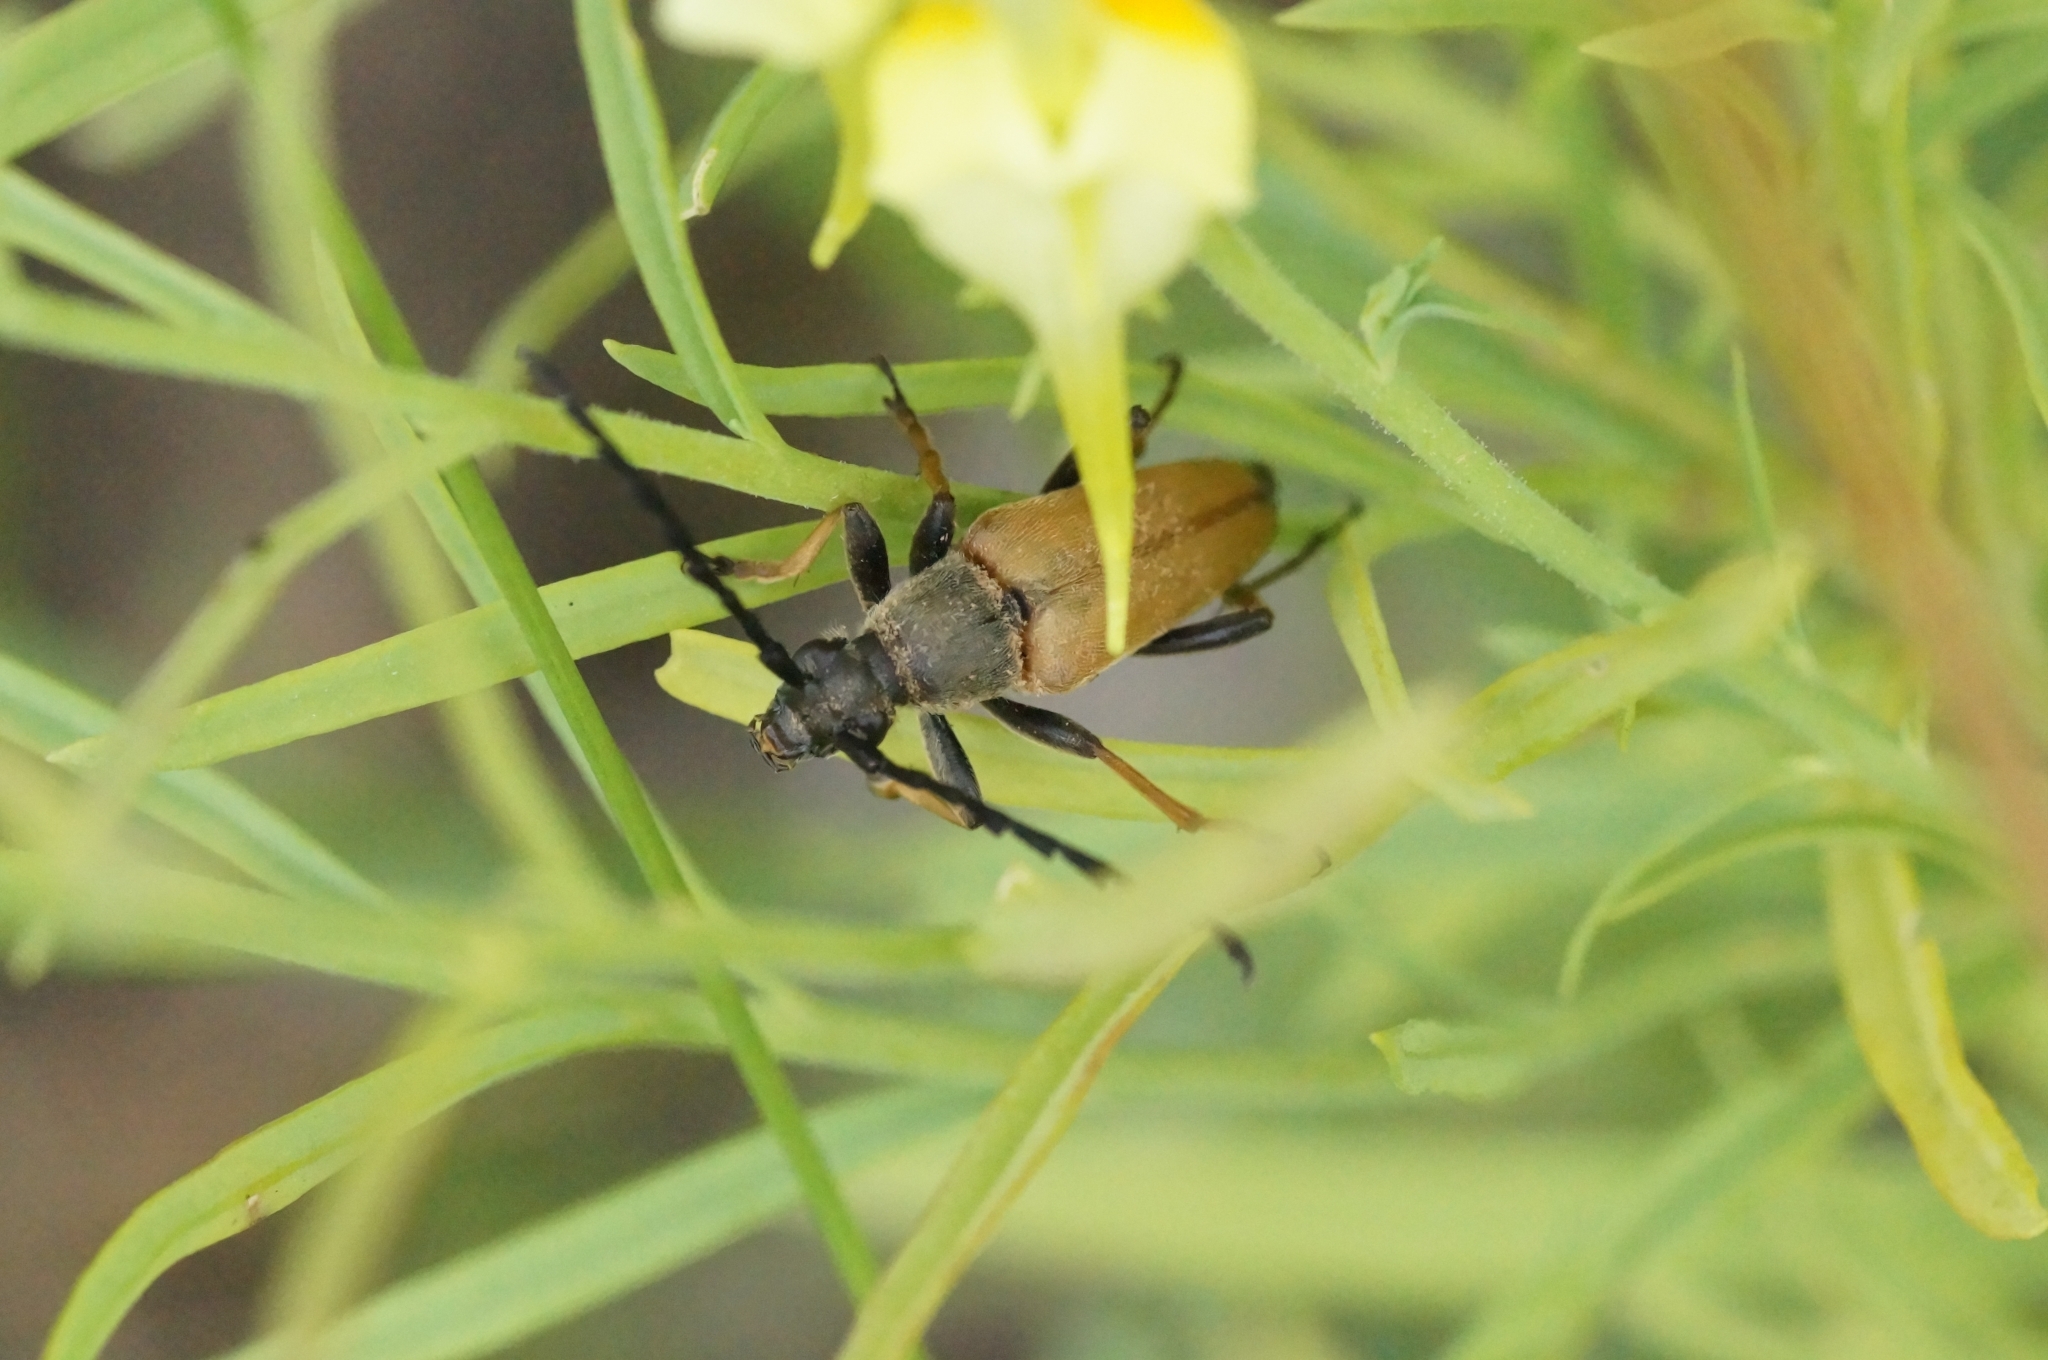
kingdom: Animalia
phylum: Arthropoda
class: Insecta
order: Coleoptera
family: Cerambycidae
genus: Stictoleptura
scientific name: Stictoleptura rubra
